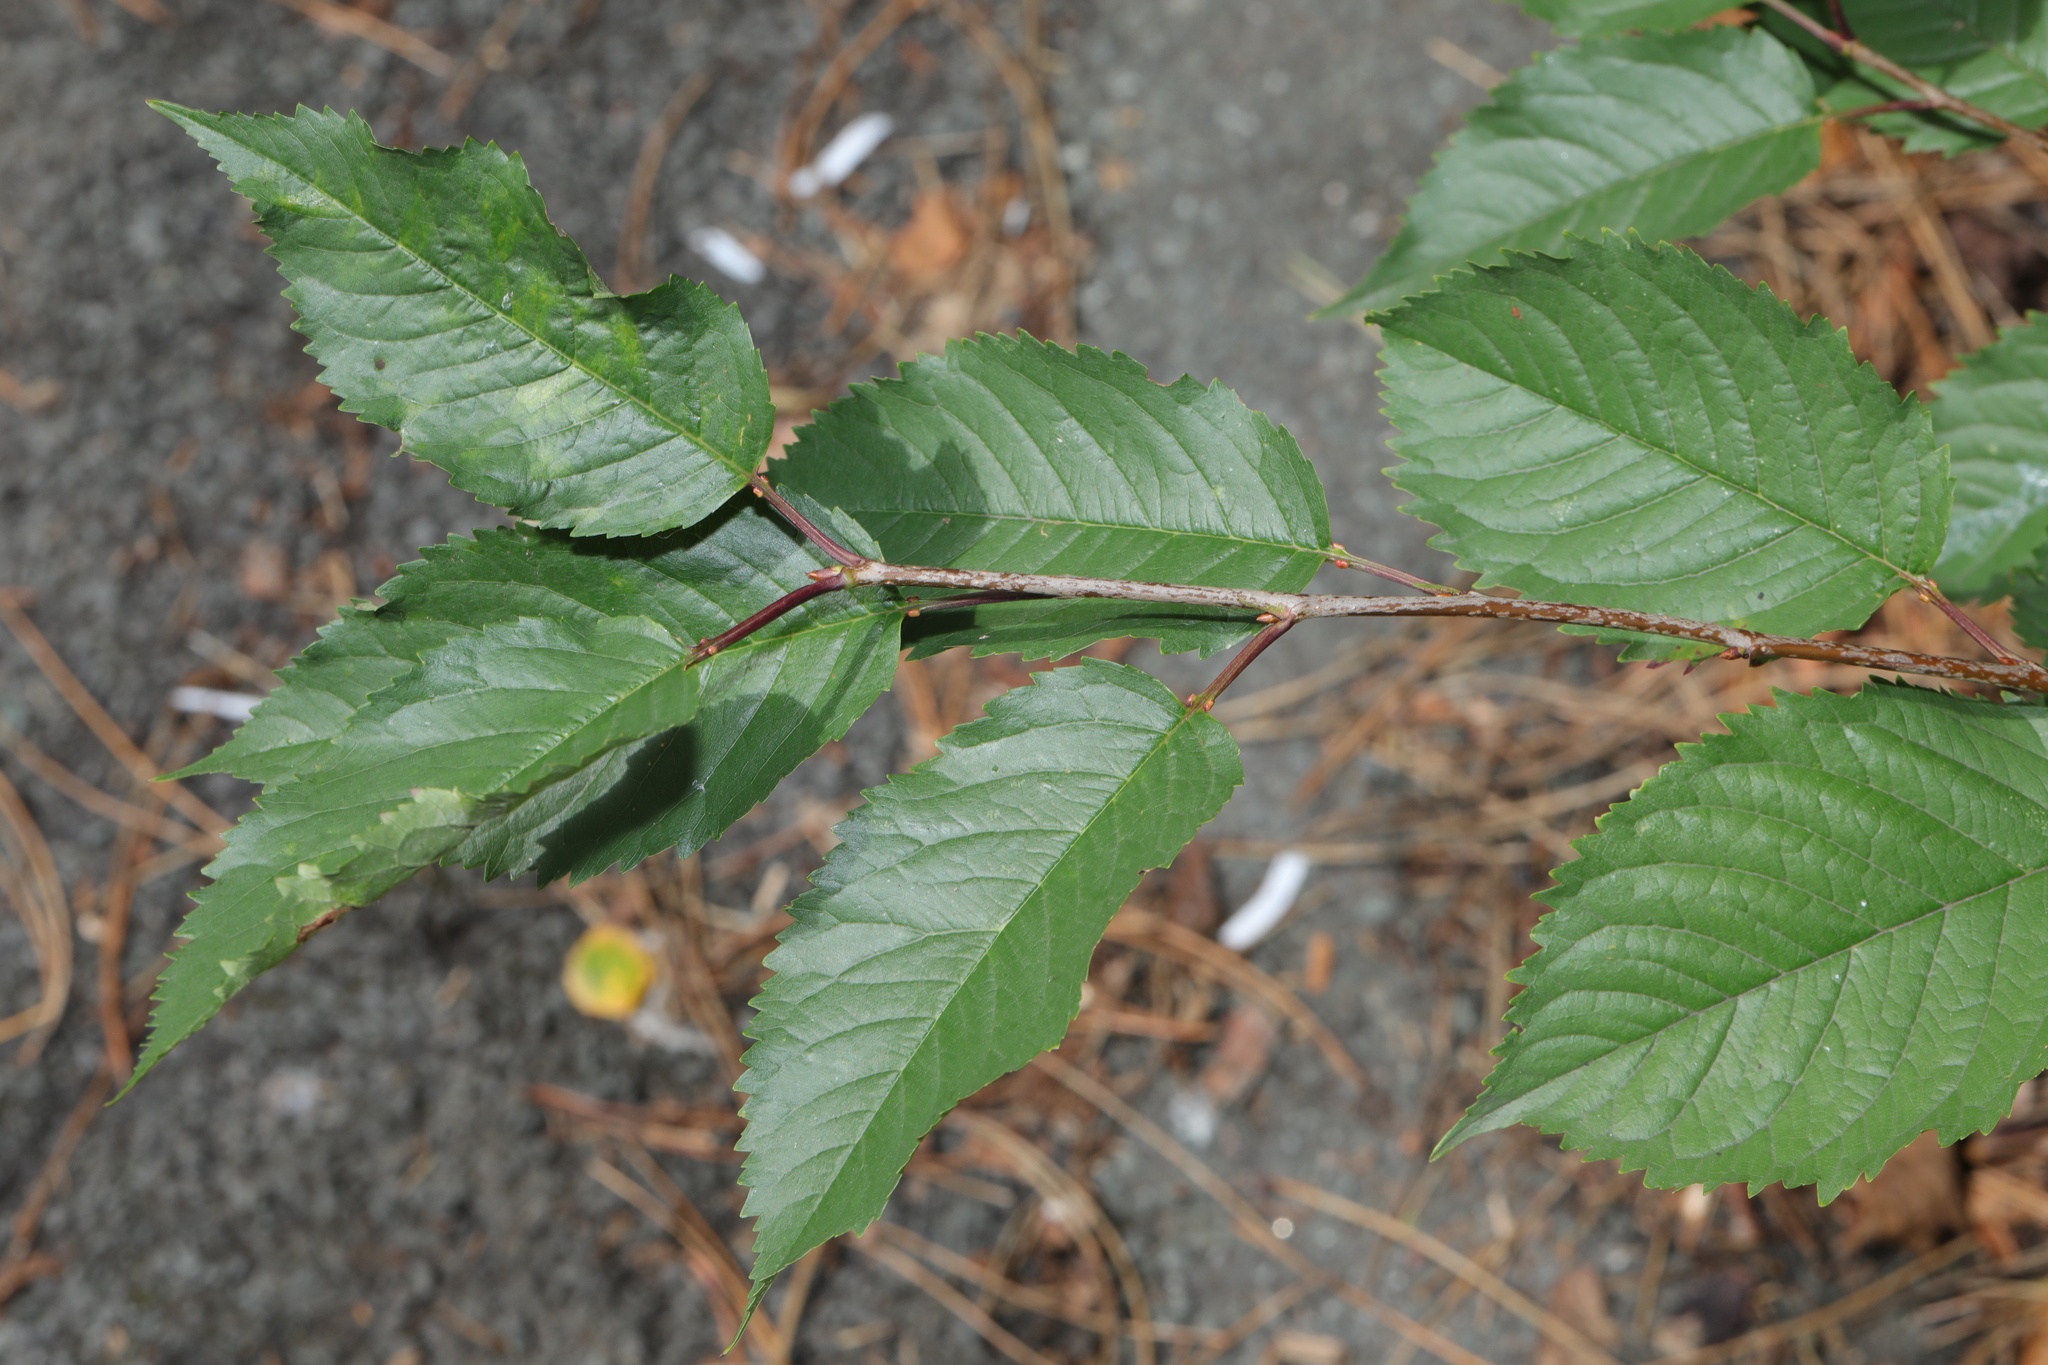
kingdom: Plantae
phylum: Tracheophyta
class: Magnoliopsida
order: Rosales
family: Rosaceae
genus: Prunus
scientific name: Prunus avium
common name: Sweet cherry
